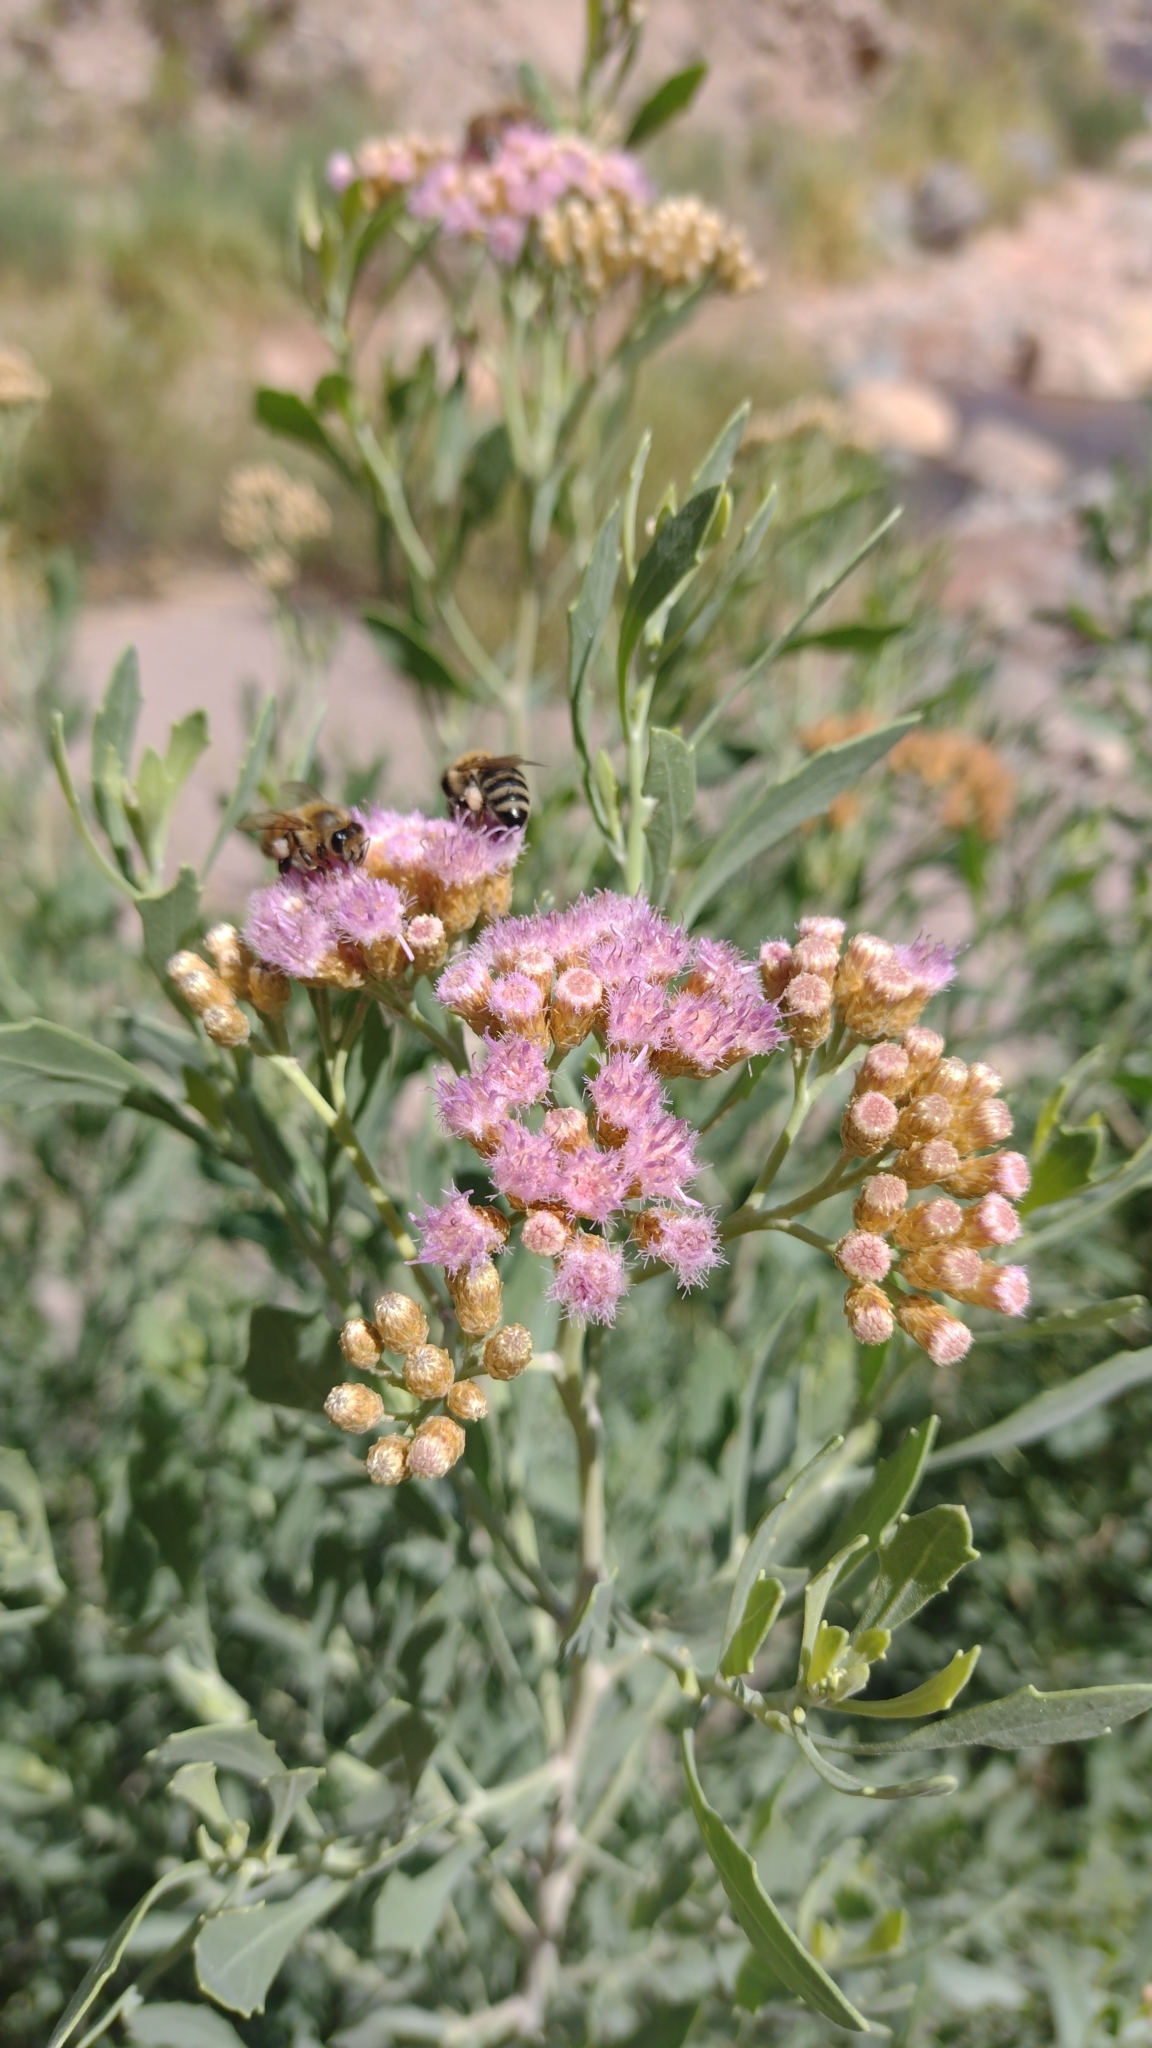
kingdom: Plantae
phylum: Tracheophyta
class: Magnoliopsida
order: Asterales
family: Asteraceae
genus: Tessaria
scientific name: Tessaria absinthioides
